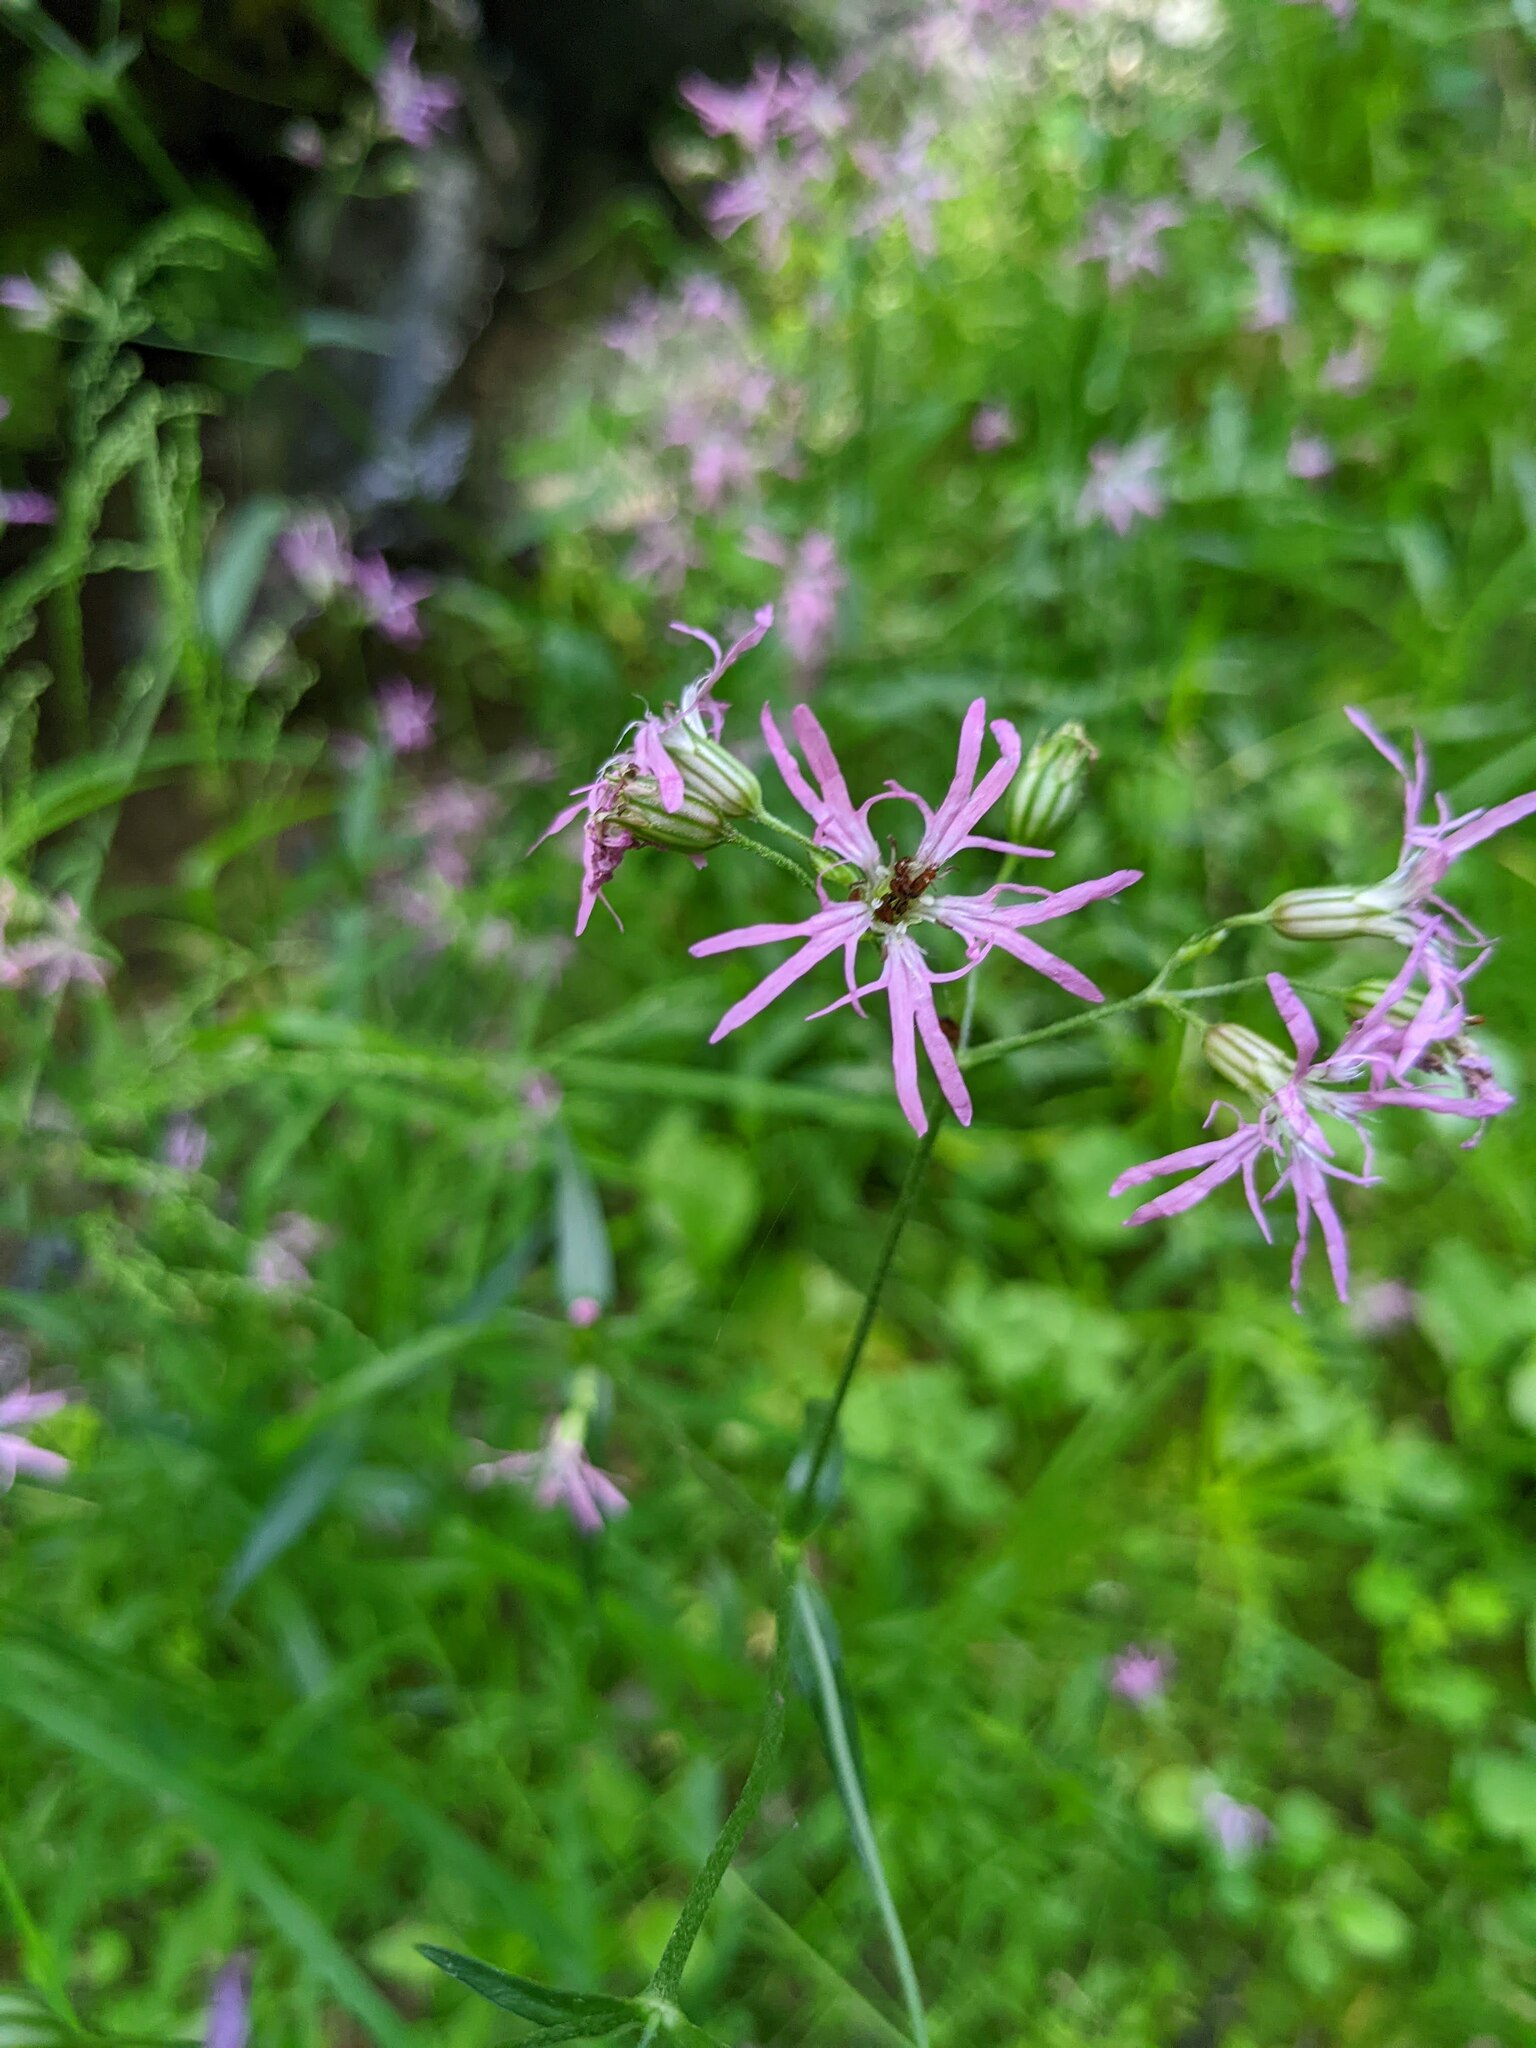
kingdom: Plantae
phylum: Tracheophyta
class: Magnoliopsida
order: Caryophyllales
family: Caryophyllaceae
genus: Silene
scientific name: Silene flos-cuculi
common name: Ragged-robin
